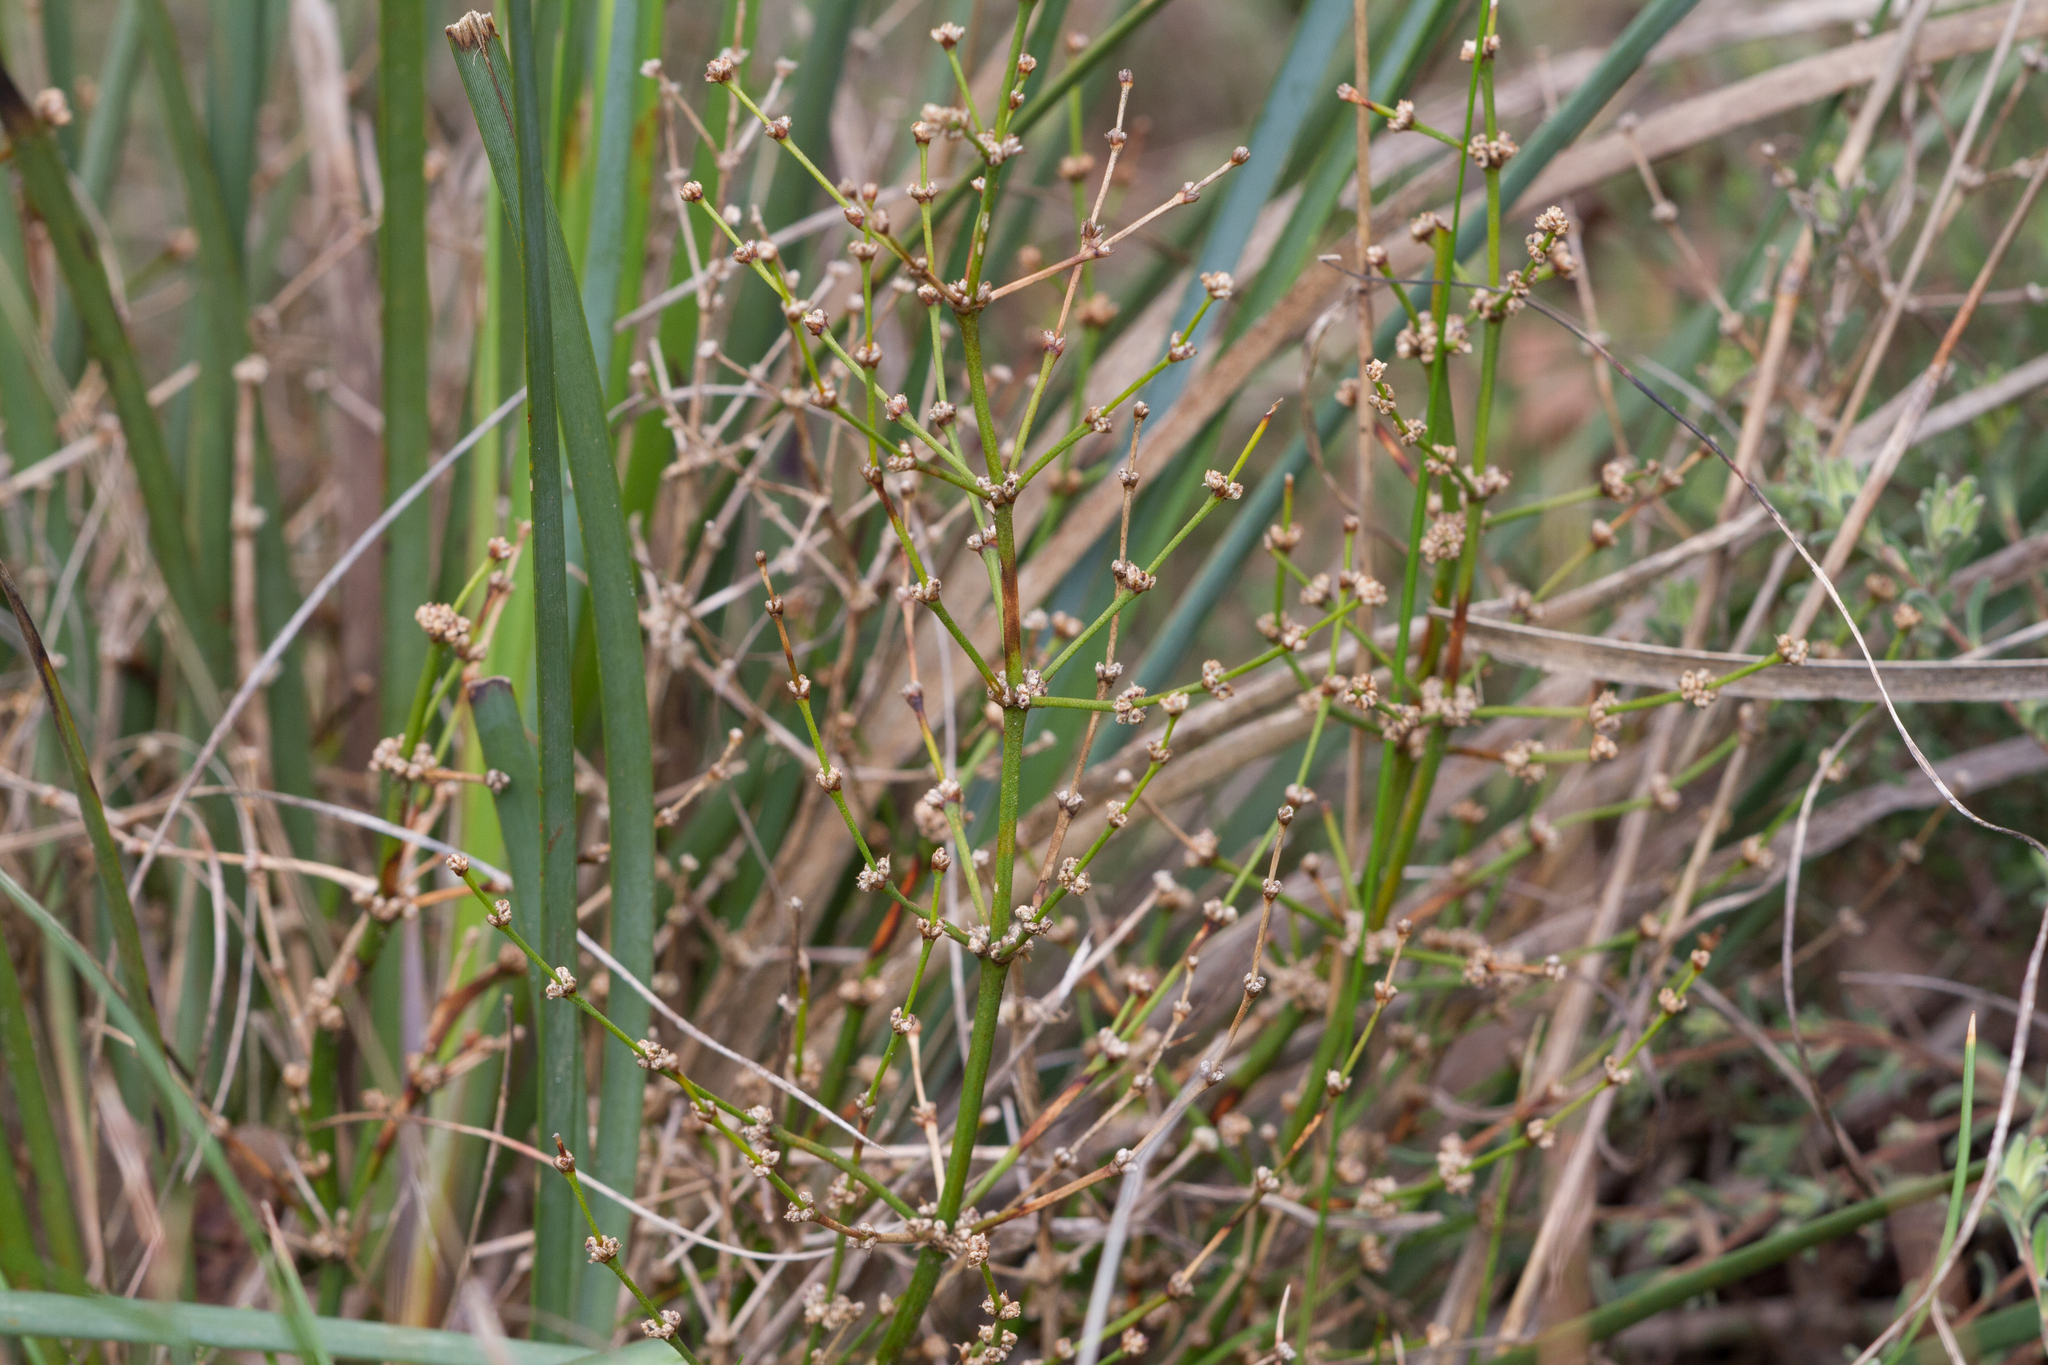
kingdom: Plantae
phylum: Tracheophyta
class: Liliopsida
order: Asparagales
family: Asparagaceae
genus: Lomandra
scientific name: Lomandra multiflora
